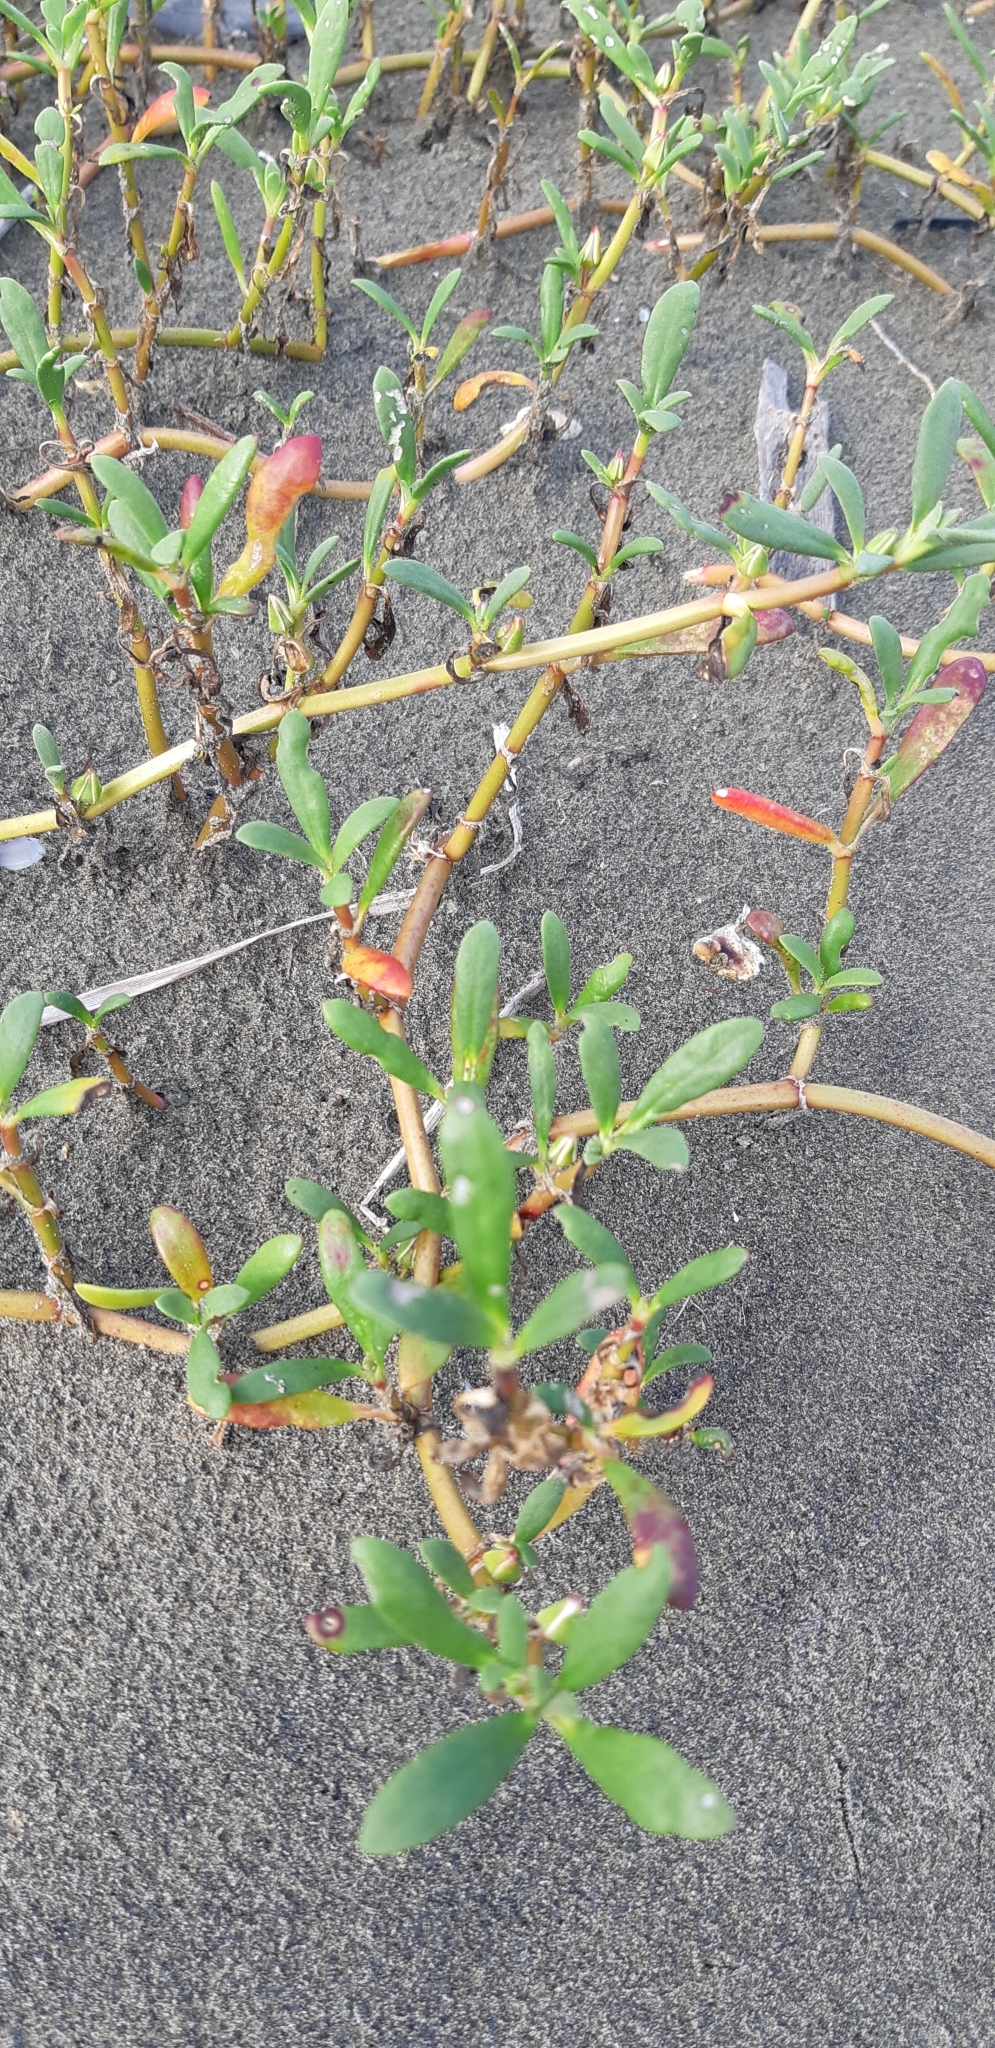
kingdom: Plantae
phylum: Tracheophyta
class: Magnoliopsida
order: Caryophyllales
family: Aizoaceae
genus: Sesuvium
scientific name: Sesuvium portulacastrum
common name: Sea-purslane
